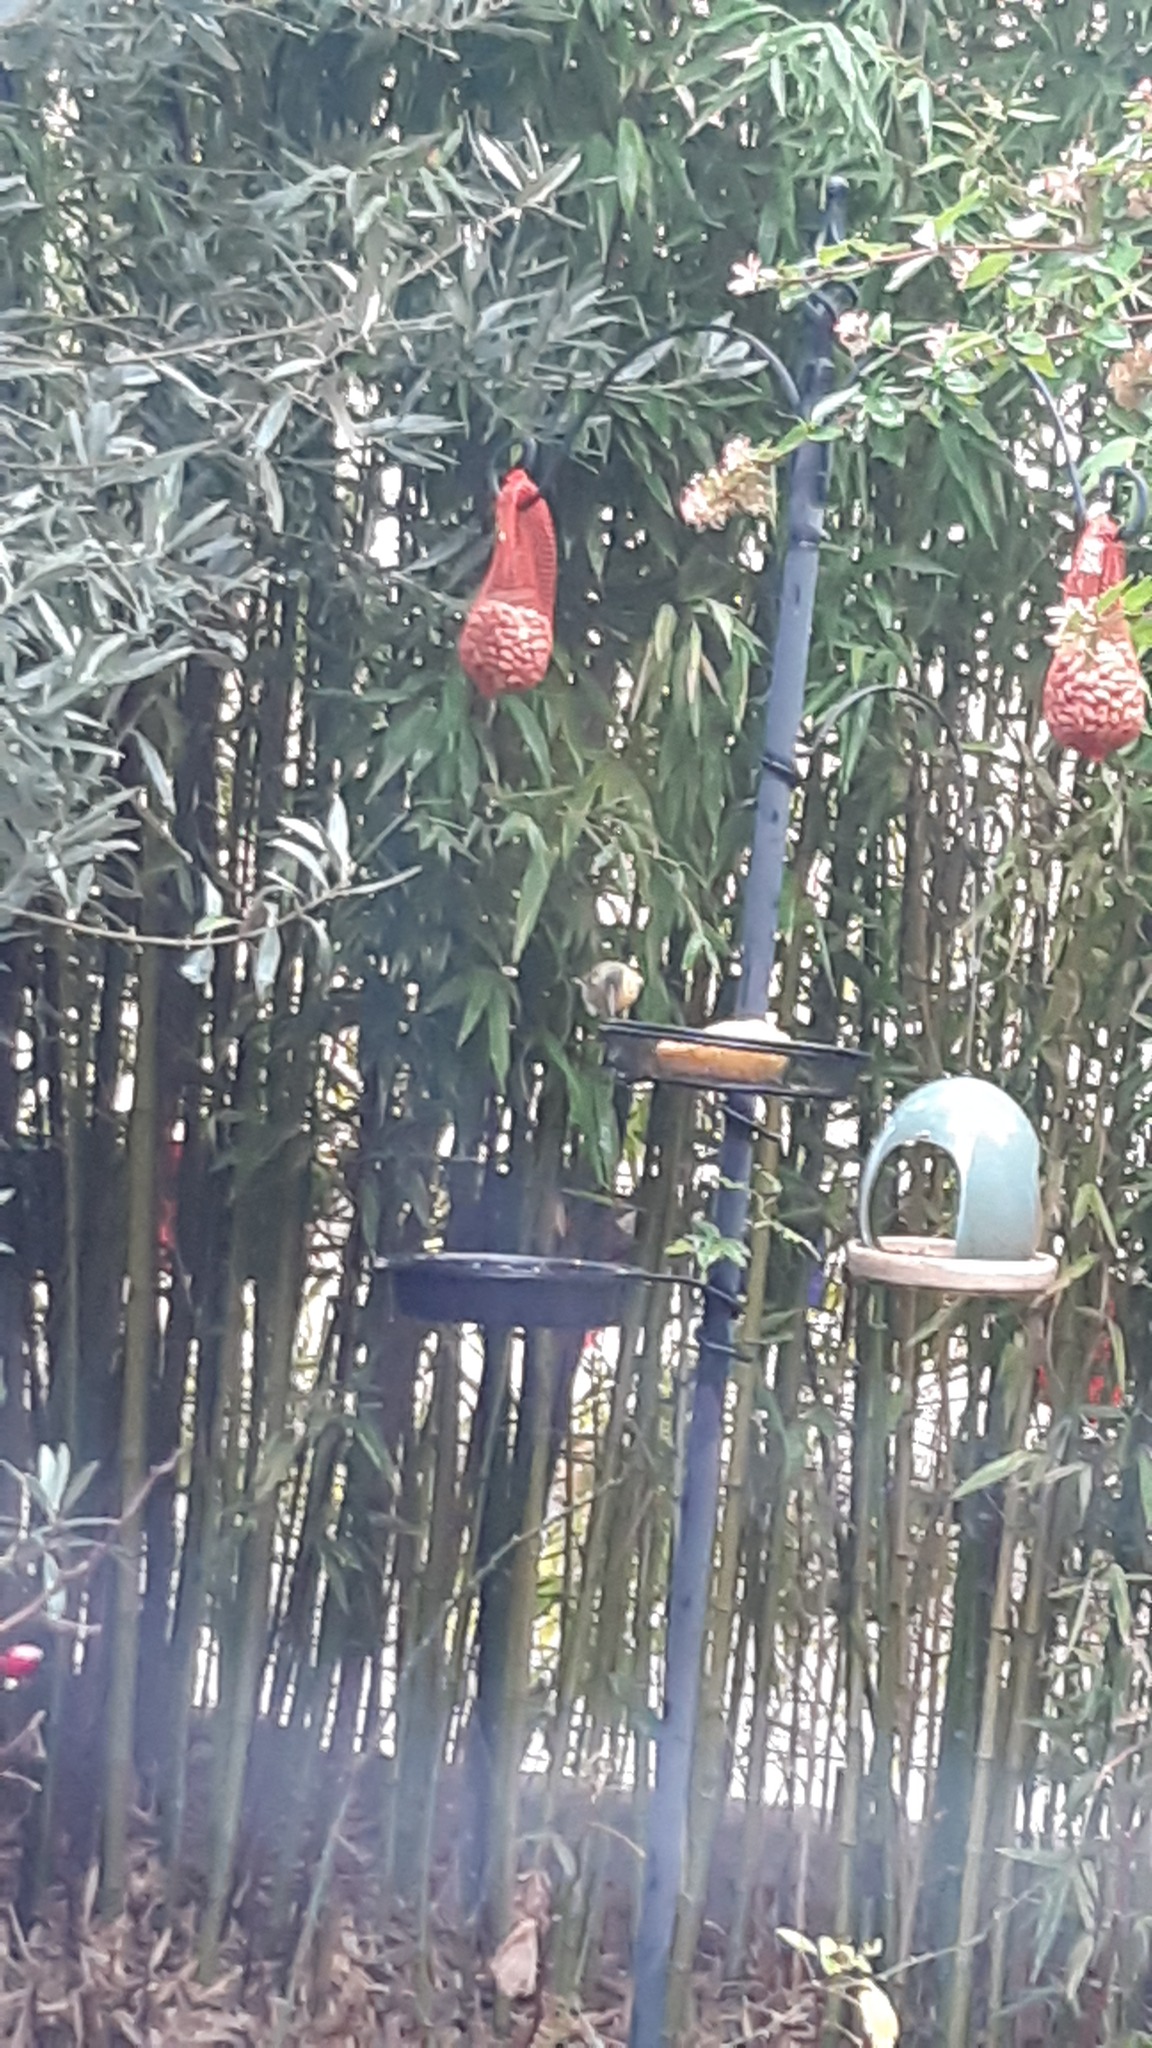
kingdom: Animalia
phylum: Chordata
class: Aves
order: Passeriformes
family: Fringillidae
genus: Spinus
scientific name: Spinus spinus
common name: Eurasian siskin
